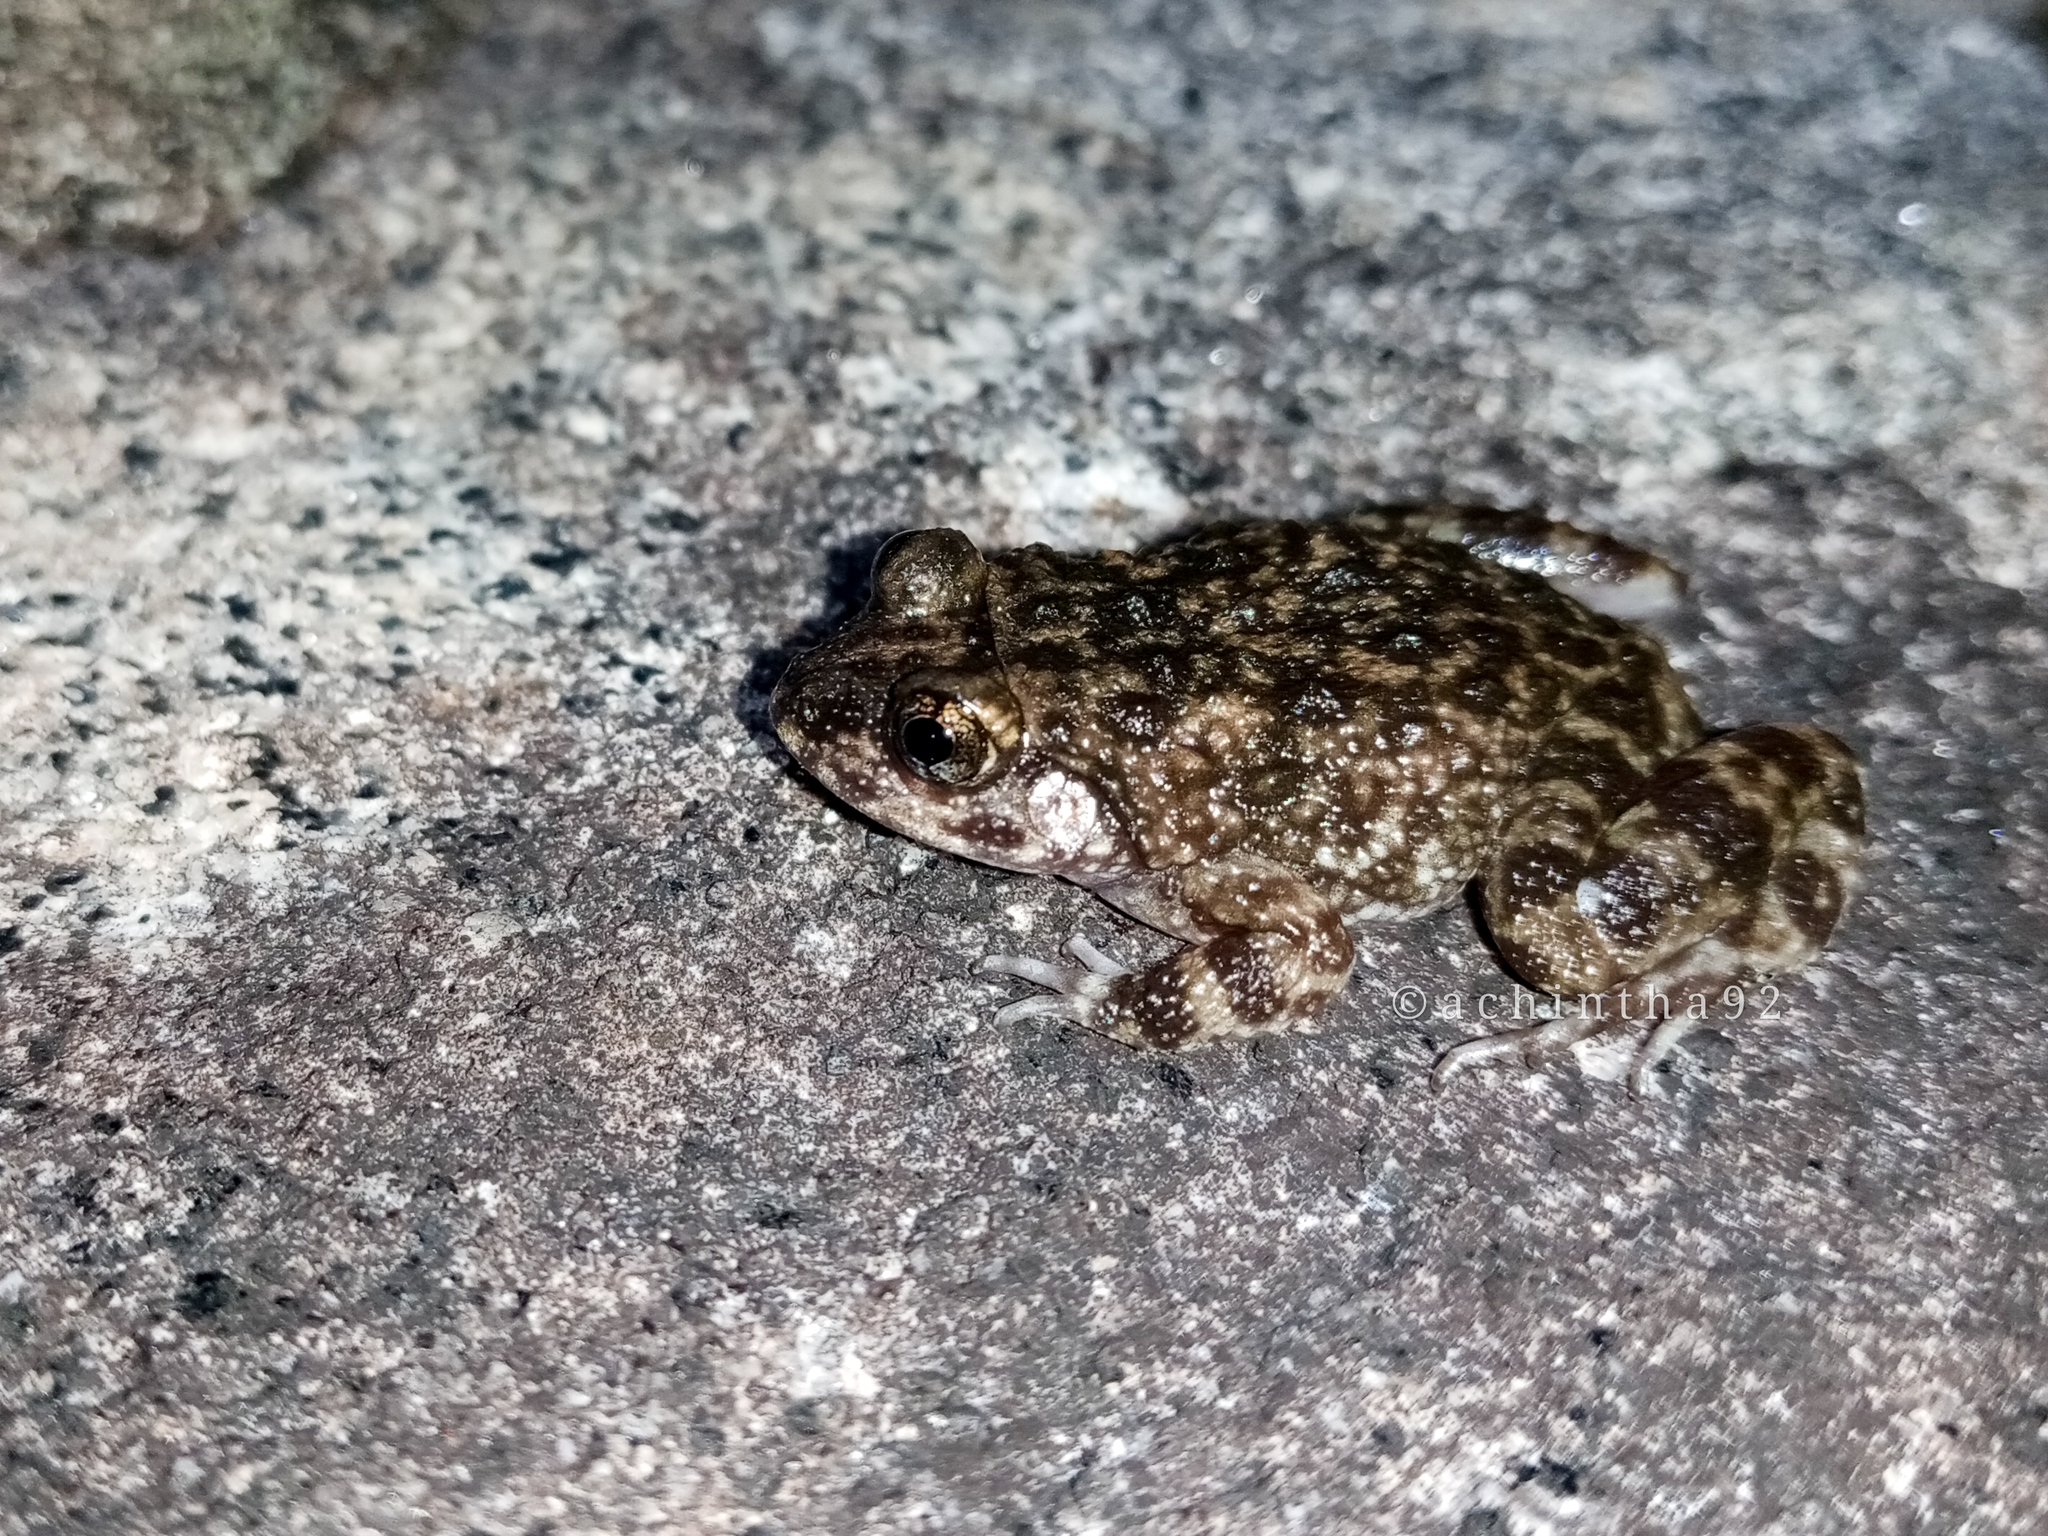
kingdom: Animalia
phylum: Chordata
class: Amphibia
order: Anura
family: Dicroglossidae
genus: Nannophrys
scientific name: Nannophrys naeyakai
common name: Sri lanka tribal rock-frog
